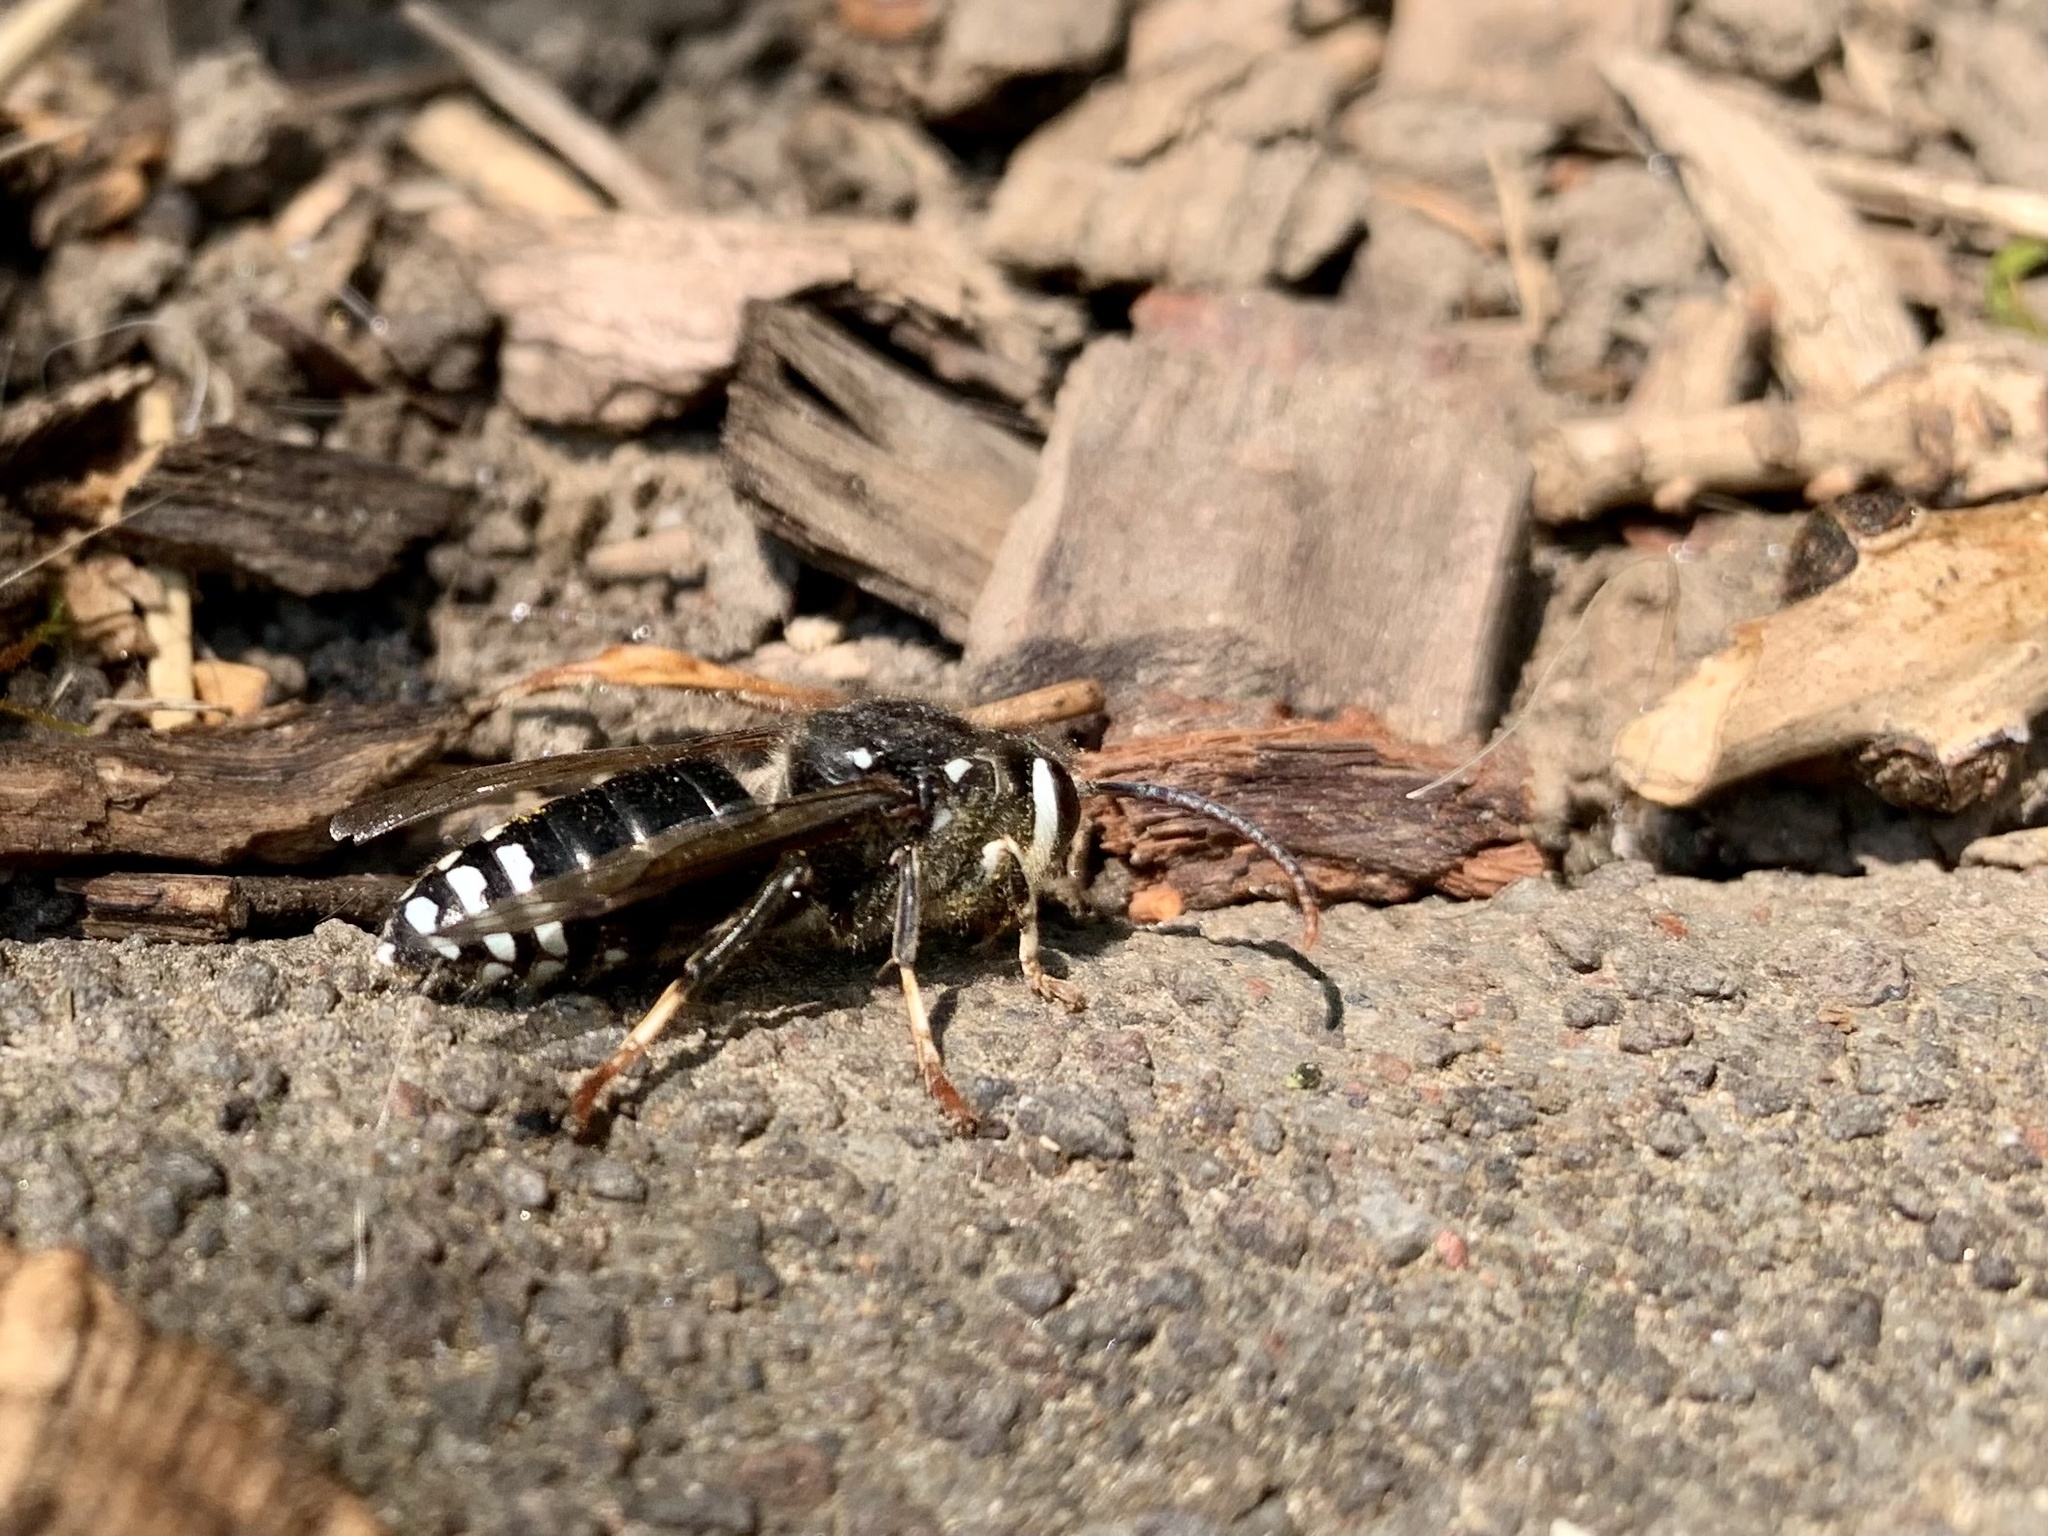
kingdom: Animalia
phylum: Arthropoda
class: Insecta
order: Hymenoptera
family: Vespidae
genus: Dolichovespula
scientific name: Dolichovespula maculata
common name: Bald-faced hornet
